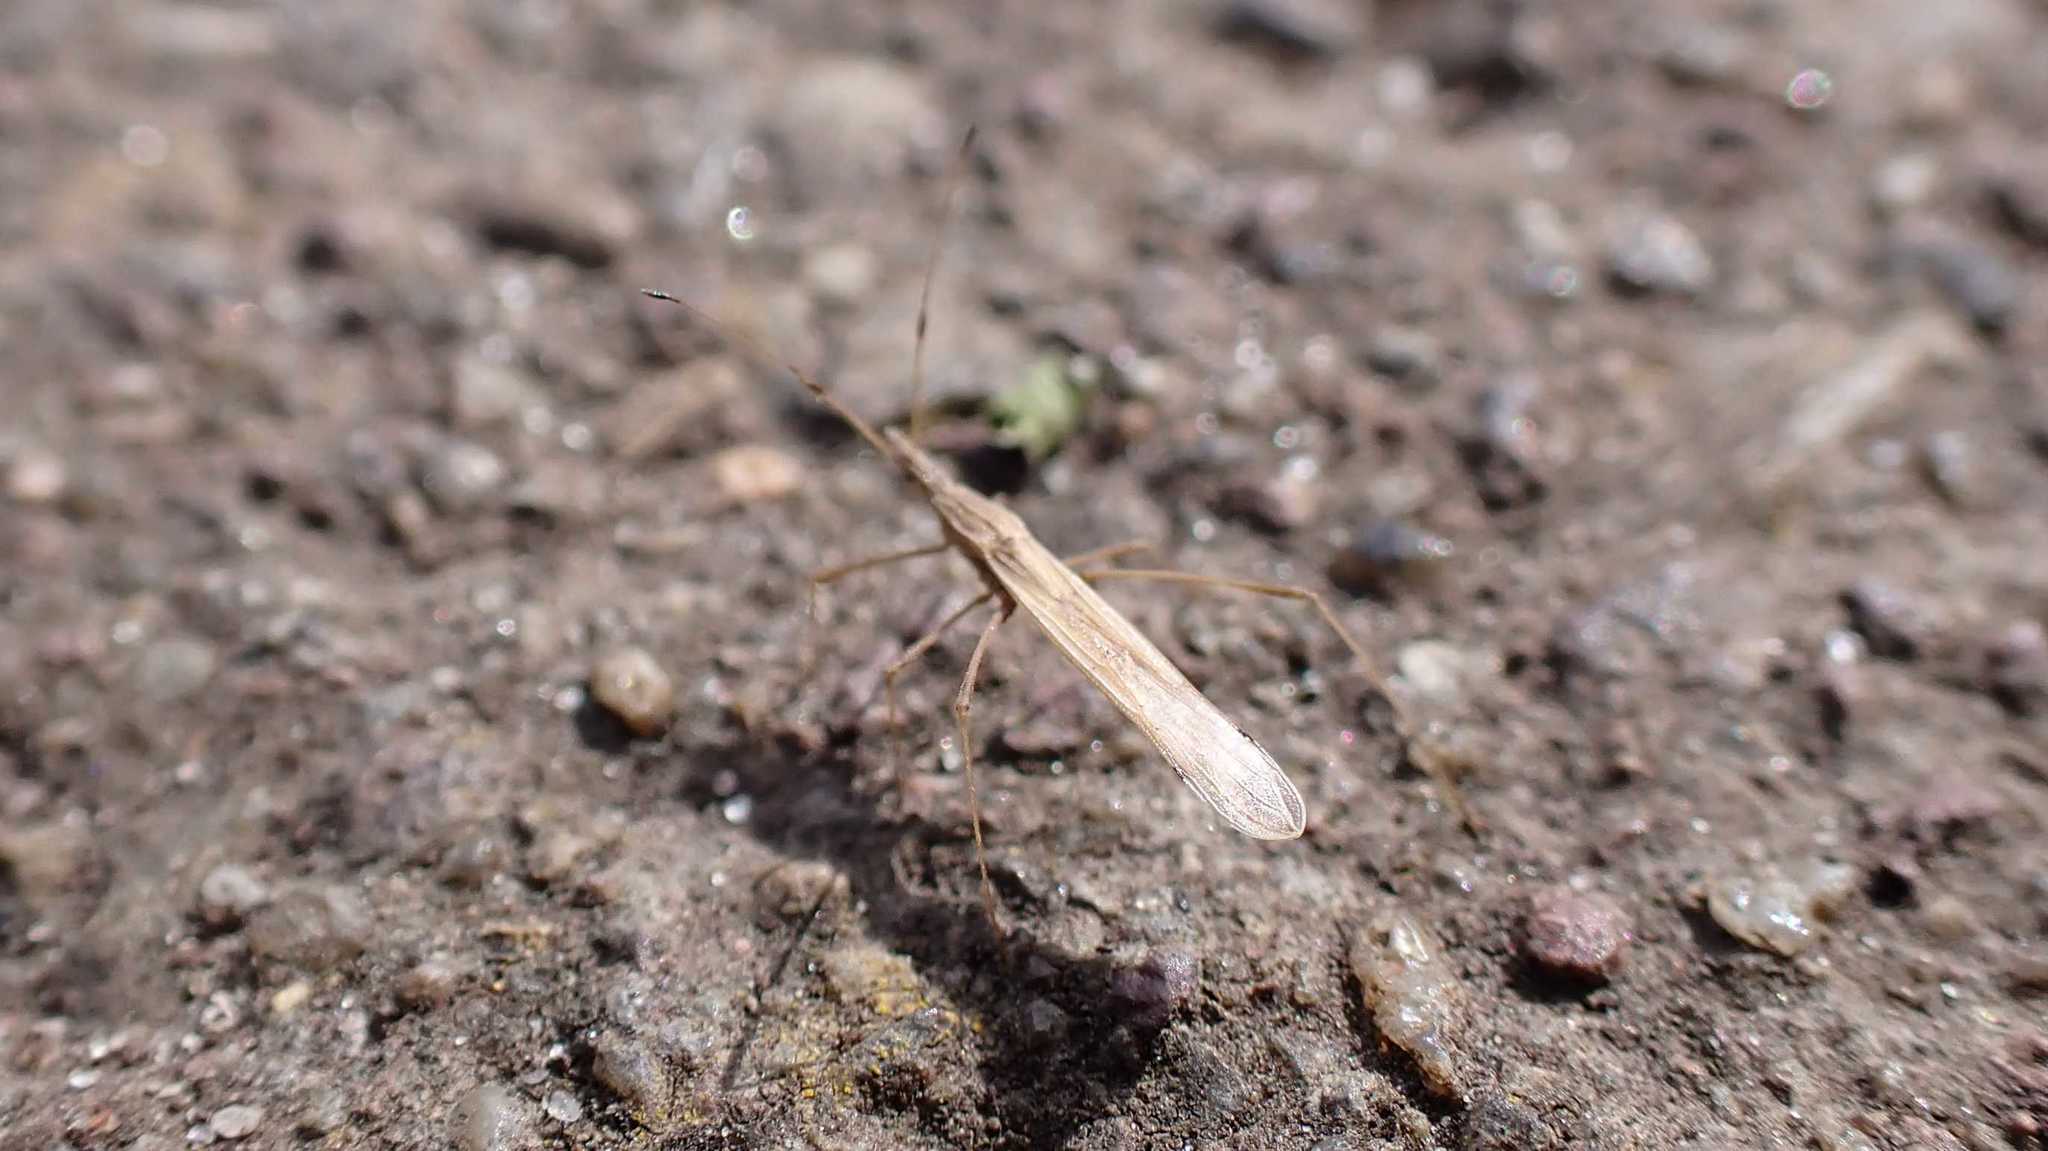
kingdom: Animalia
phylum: Arthropoda
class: Insecta
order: Hemiptera
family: Berytidae
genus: Neides
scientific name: Neides tipularius
